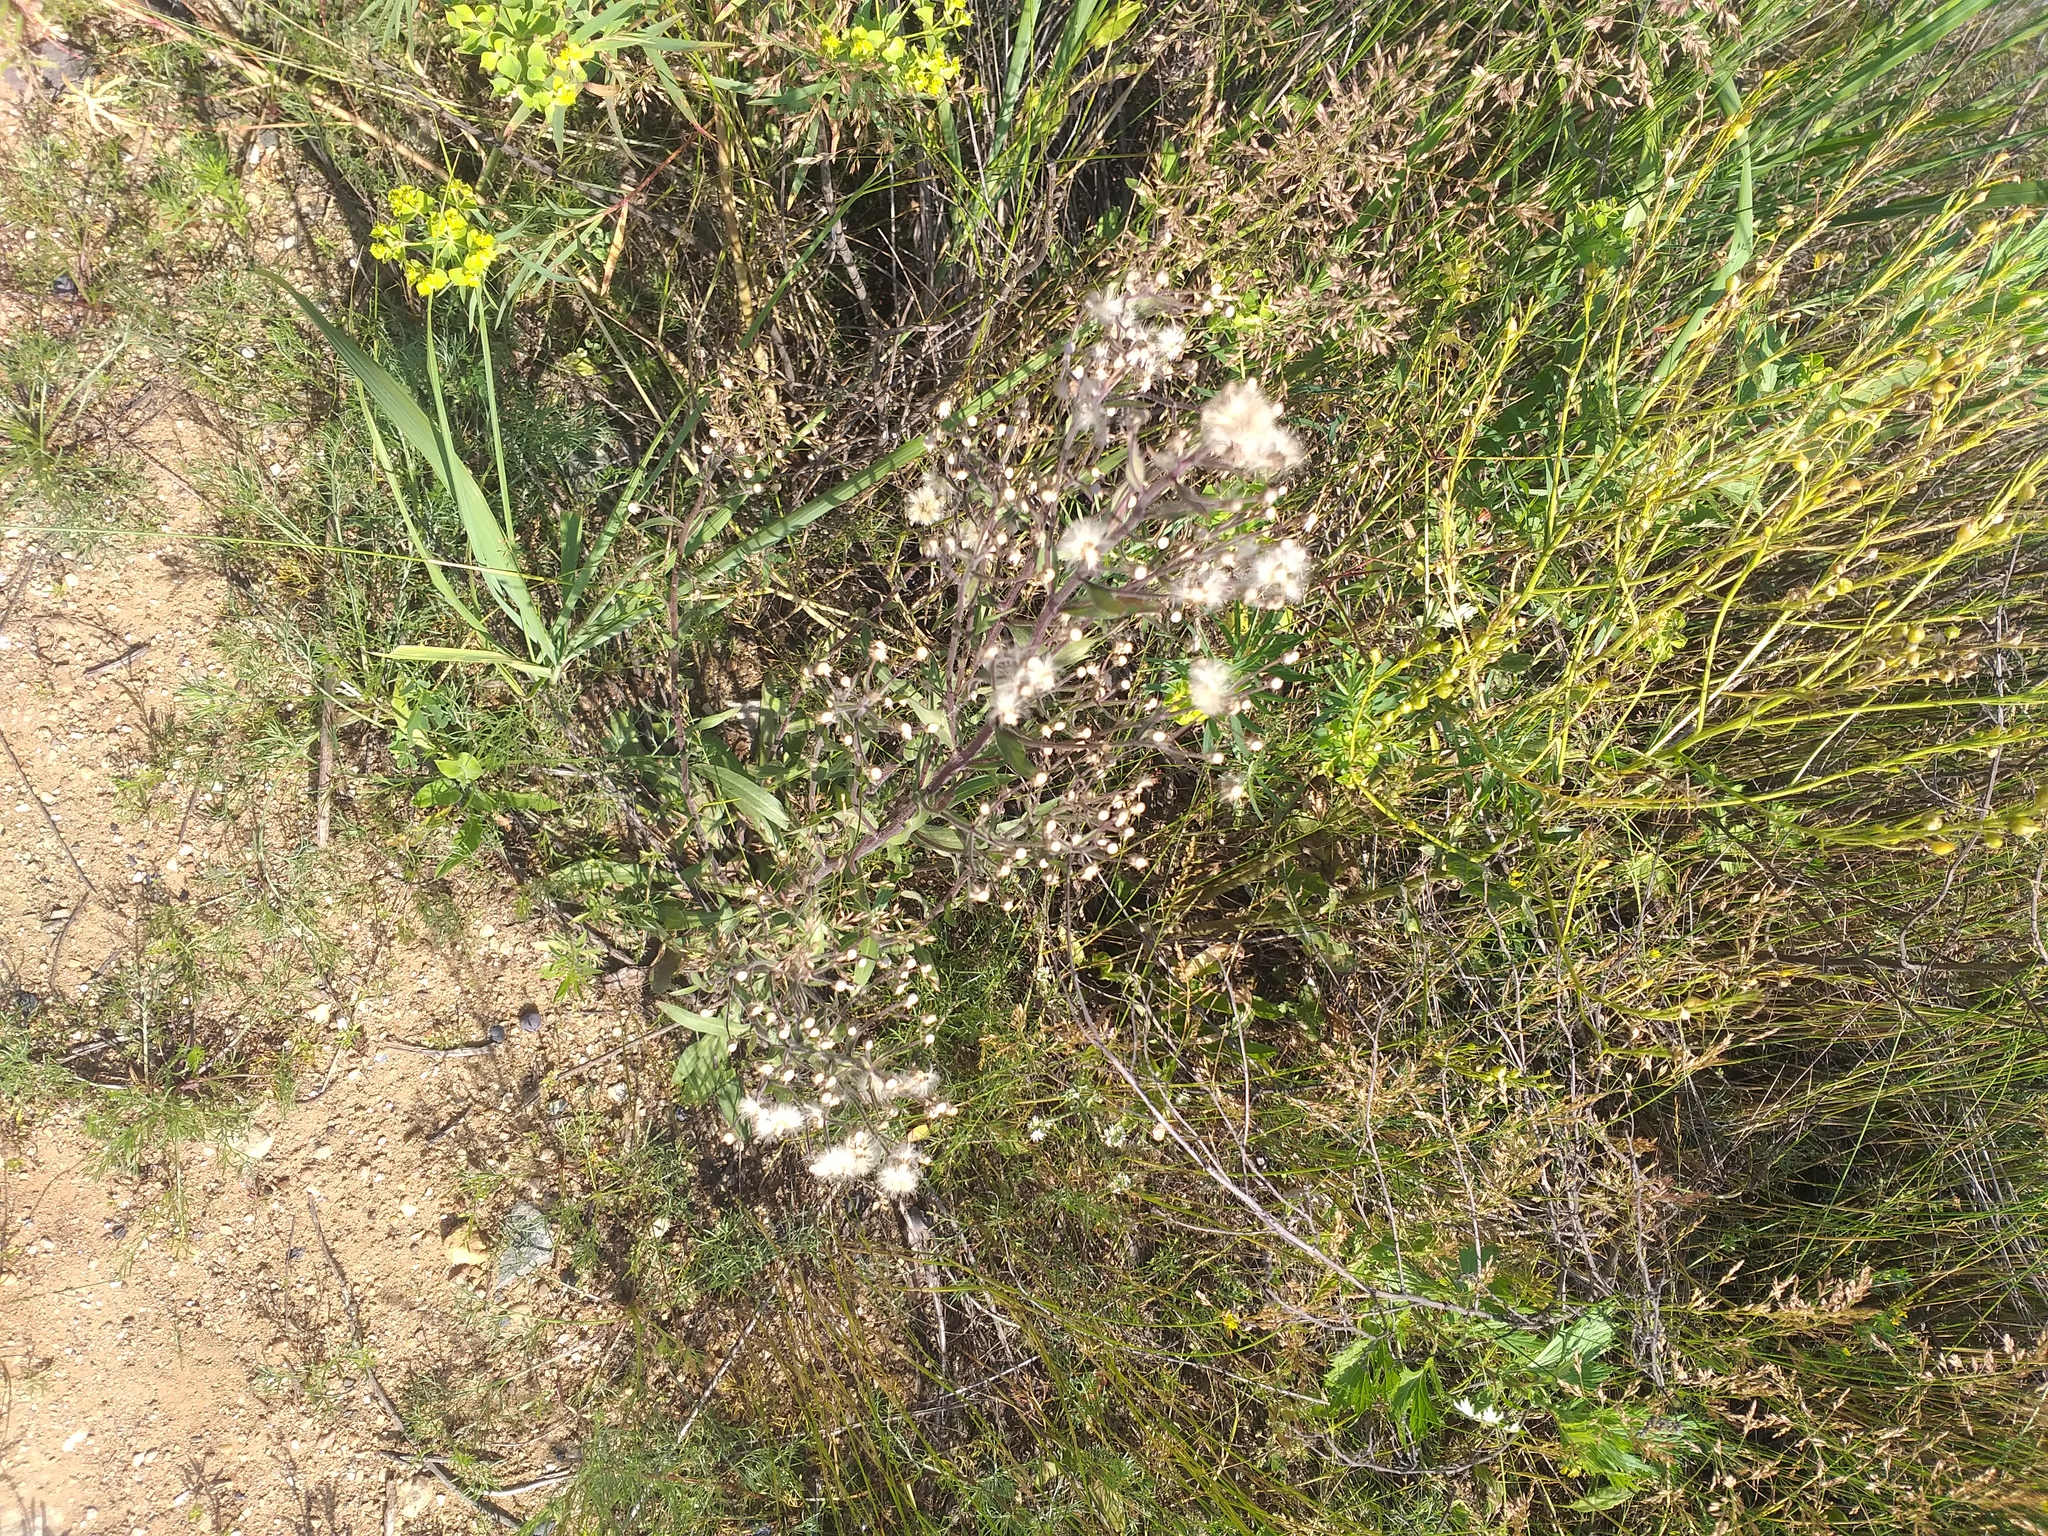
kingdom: Plantae
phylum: Tracheophyta
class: Magnoliopsida
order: Asterales
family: Asteraceae
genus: Erigeron
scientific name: Erigeron acris
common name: Blue fleabane
